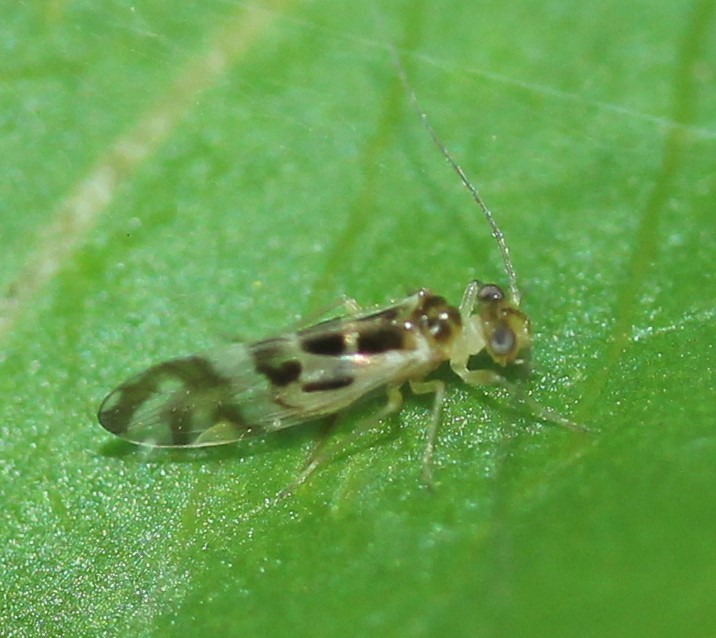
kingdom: Animalia
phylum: Arthropoda
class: Insecta
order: Psocodea
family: Stenopsocidae
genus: Graphopsocus
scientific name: Graphopsocus cruciatus
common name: Lizard bark louse
